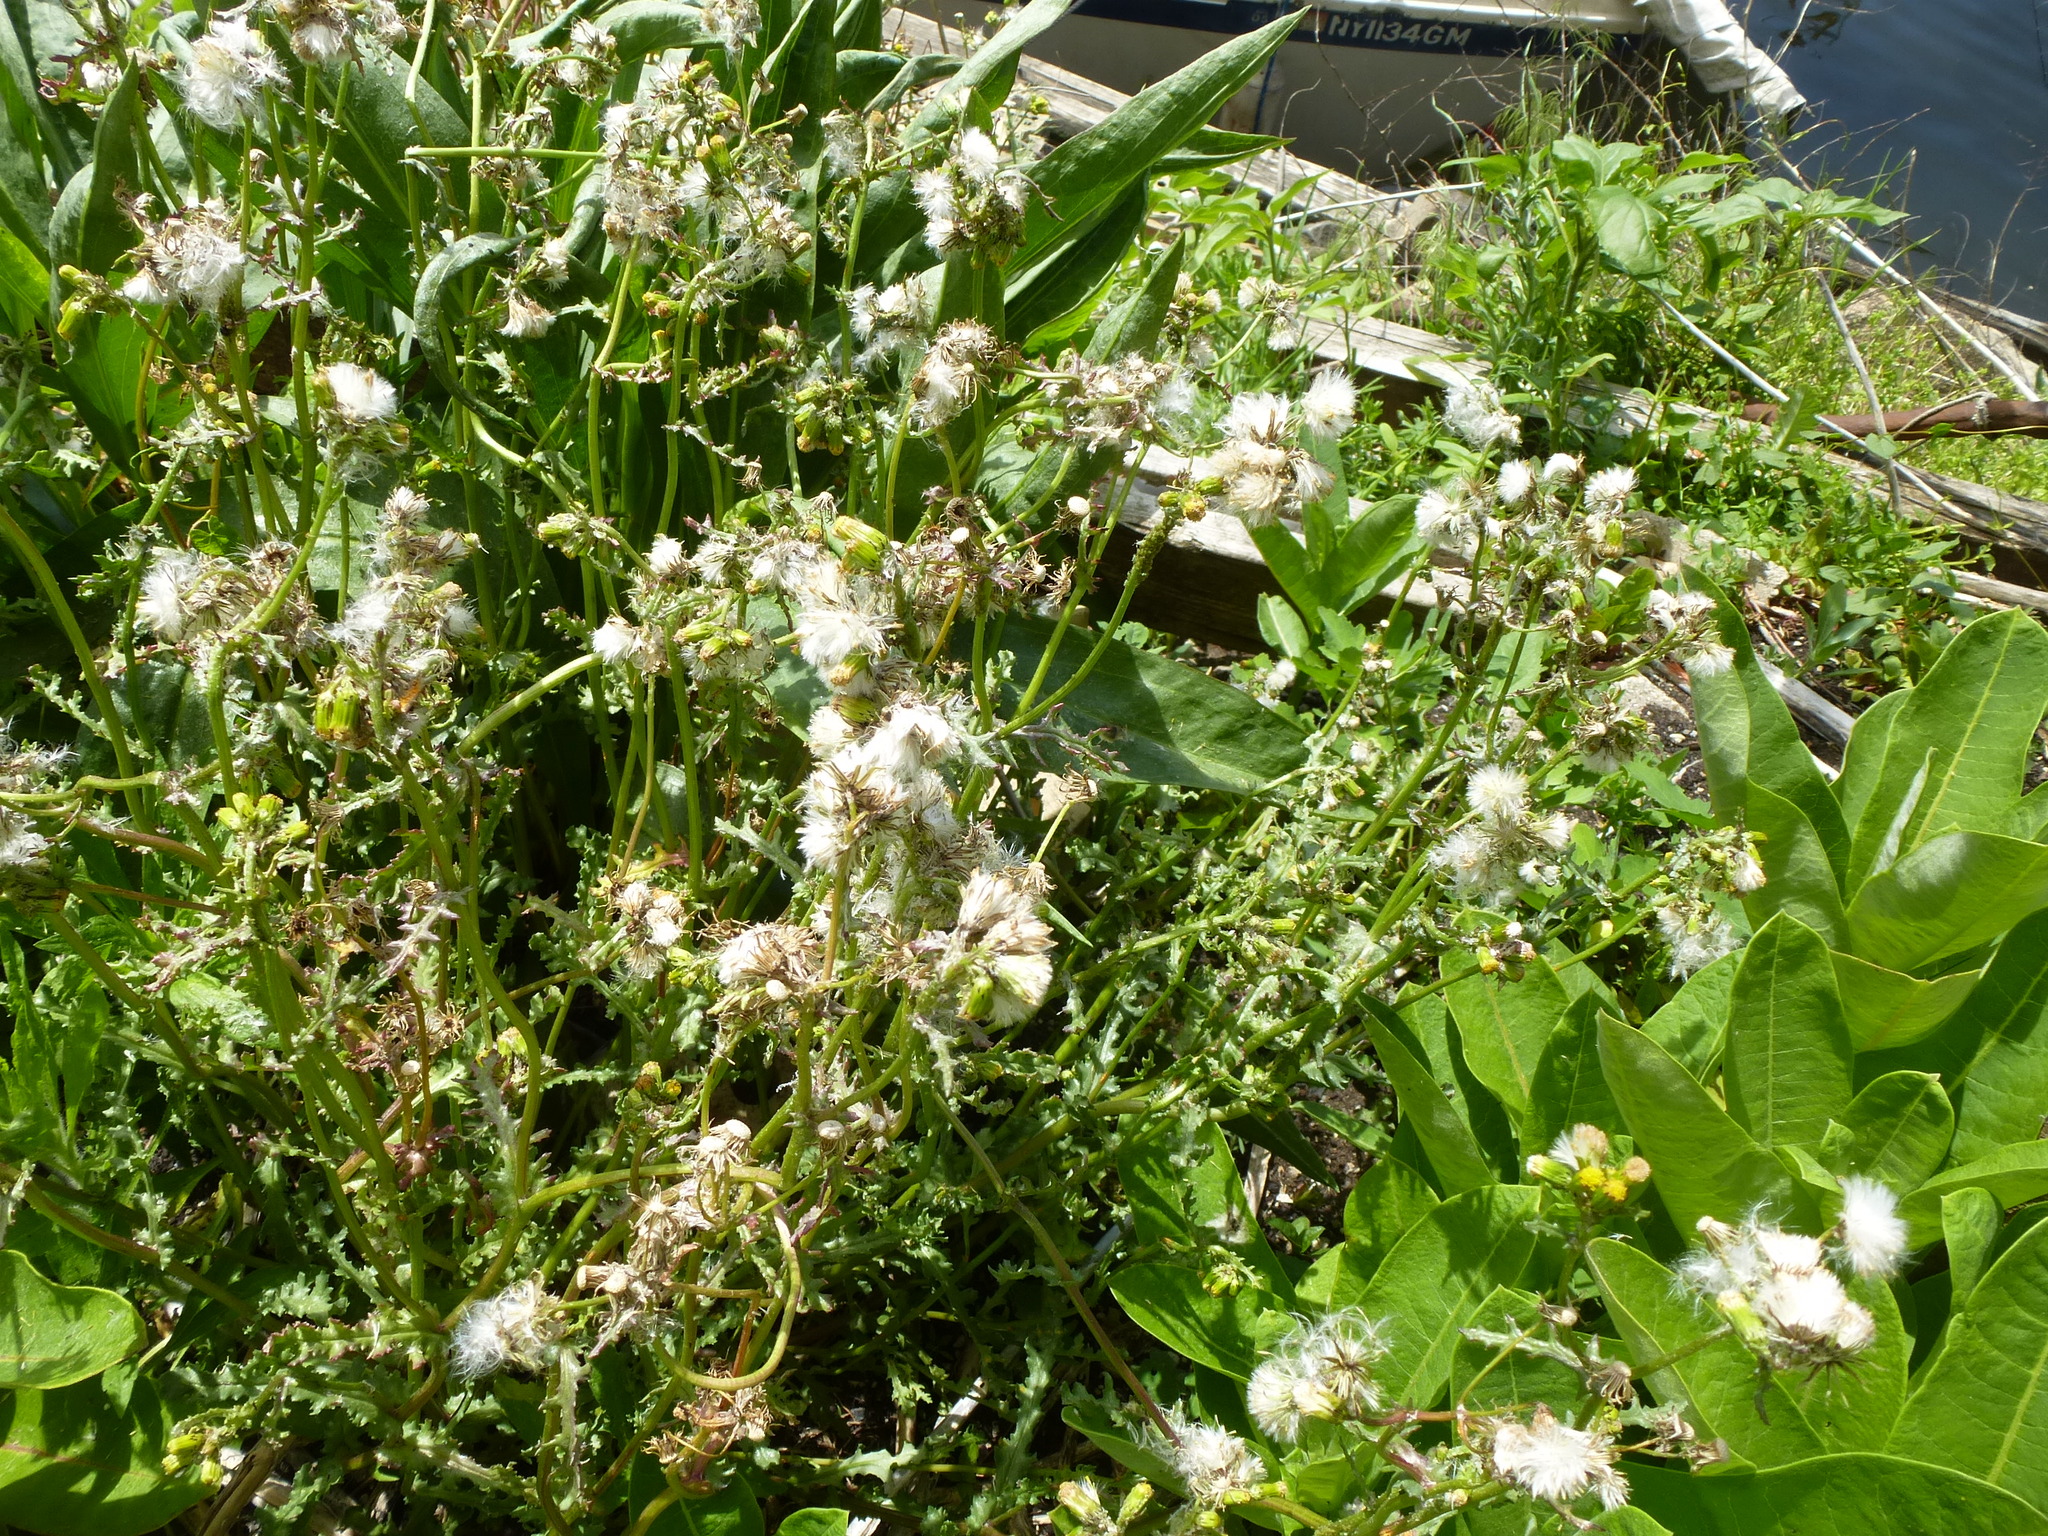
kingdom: Plantae
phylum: Tracheophyta
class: Magnoliopsida
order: Asterales
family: Asteraceae
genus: Senecio
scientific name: Senecio vulgaris
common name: Old-man-in-the-spring
